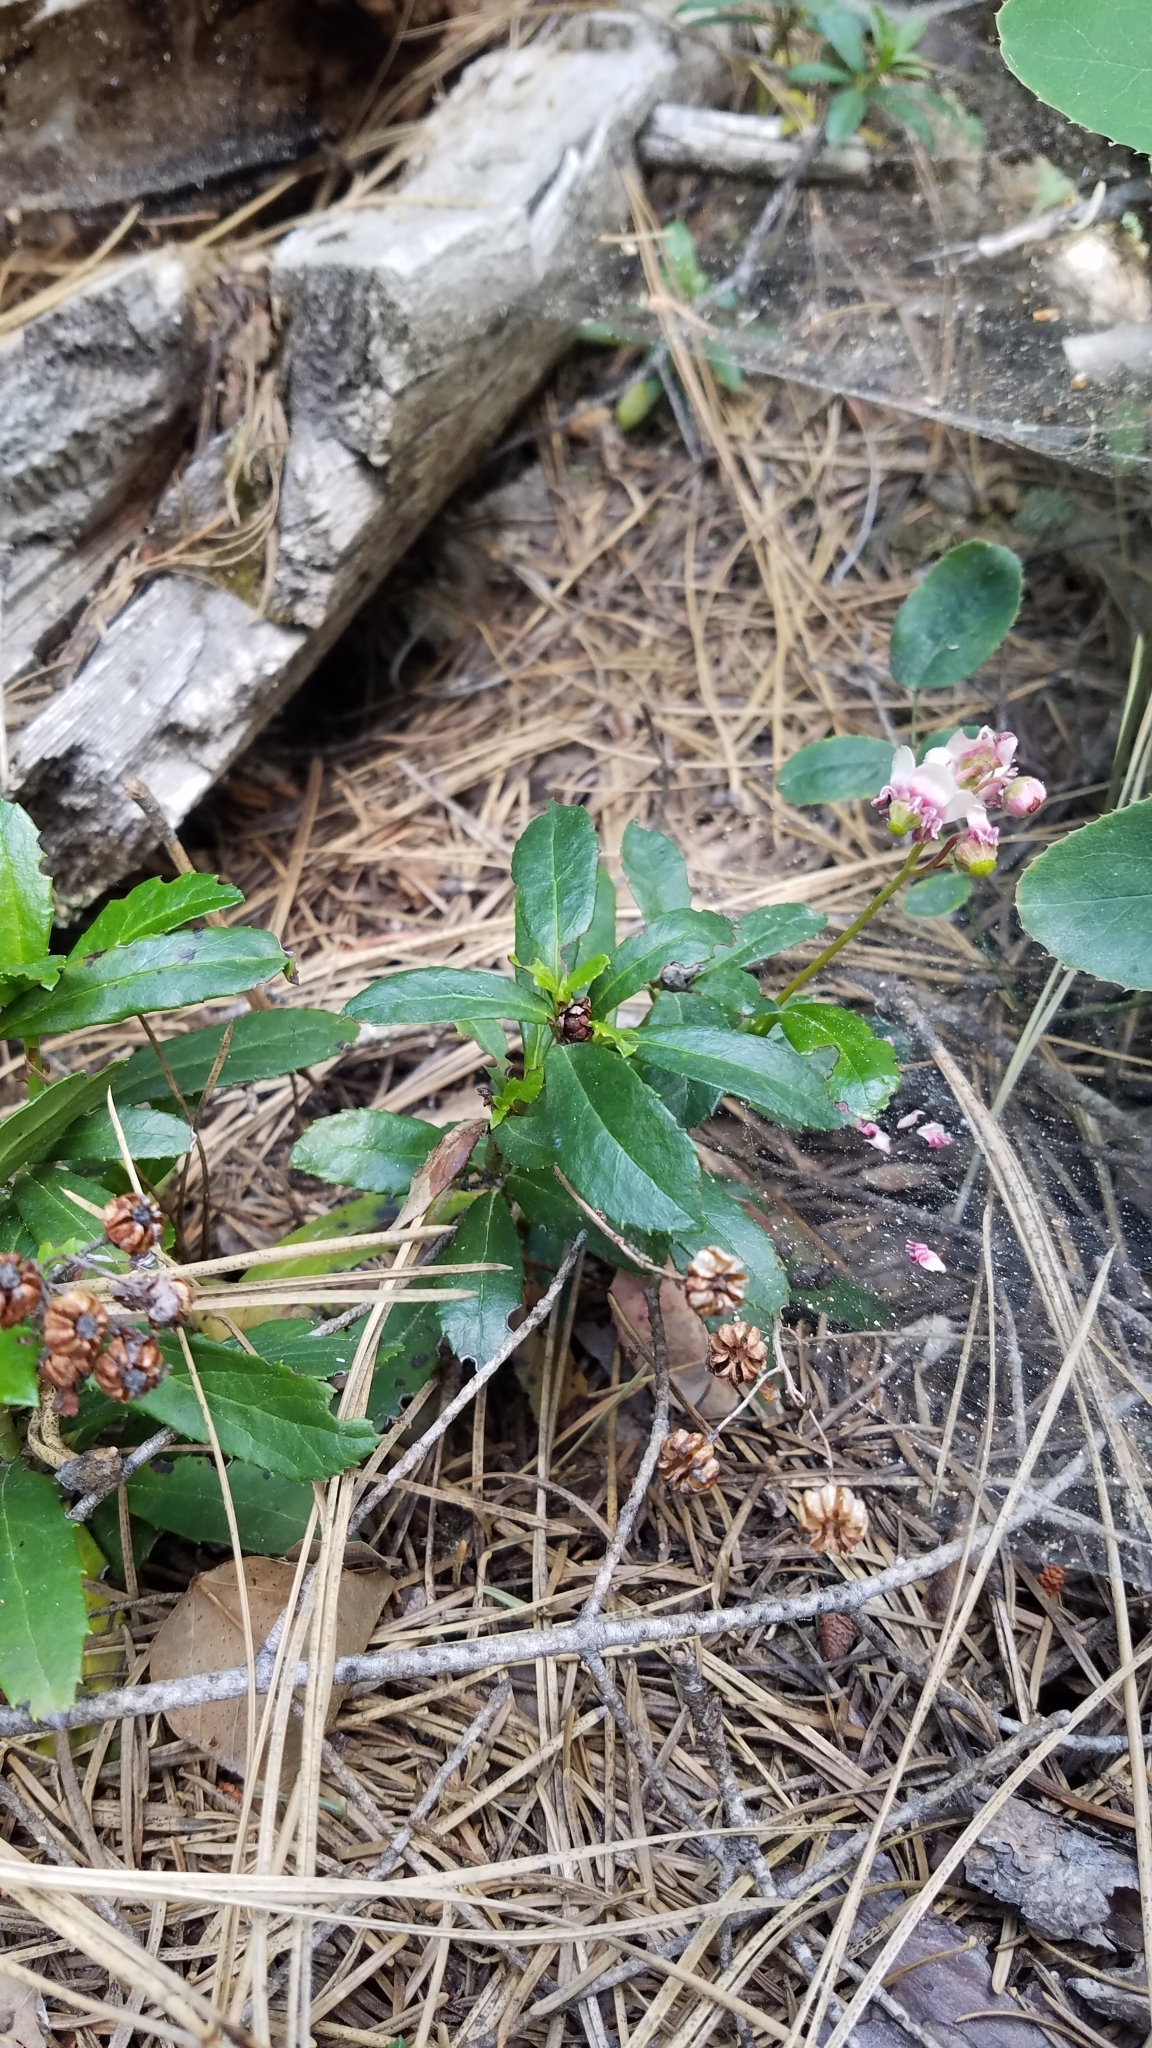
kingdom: Plantae
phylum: Tracheophyta
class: Magnoliopsida
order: Ericales
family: Ericaceae
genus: Chimaphila
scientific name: Chimaphila umbellata
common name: Pipsissewa
